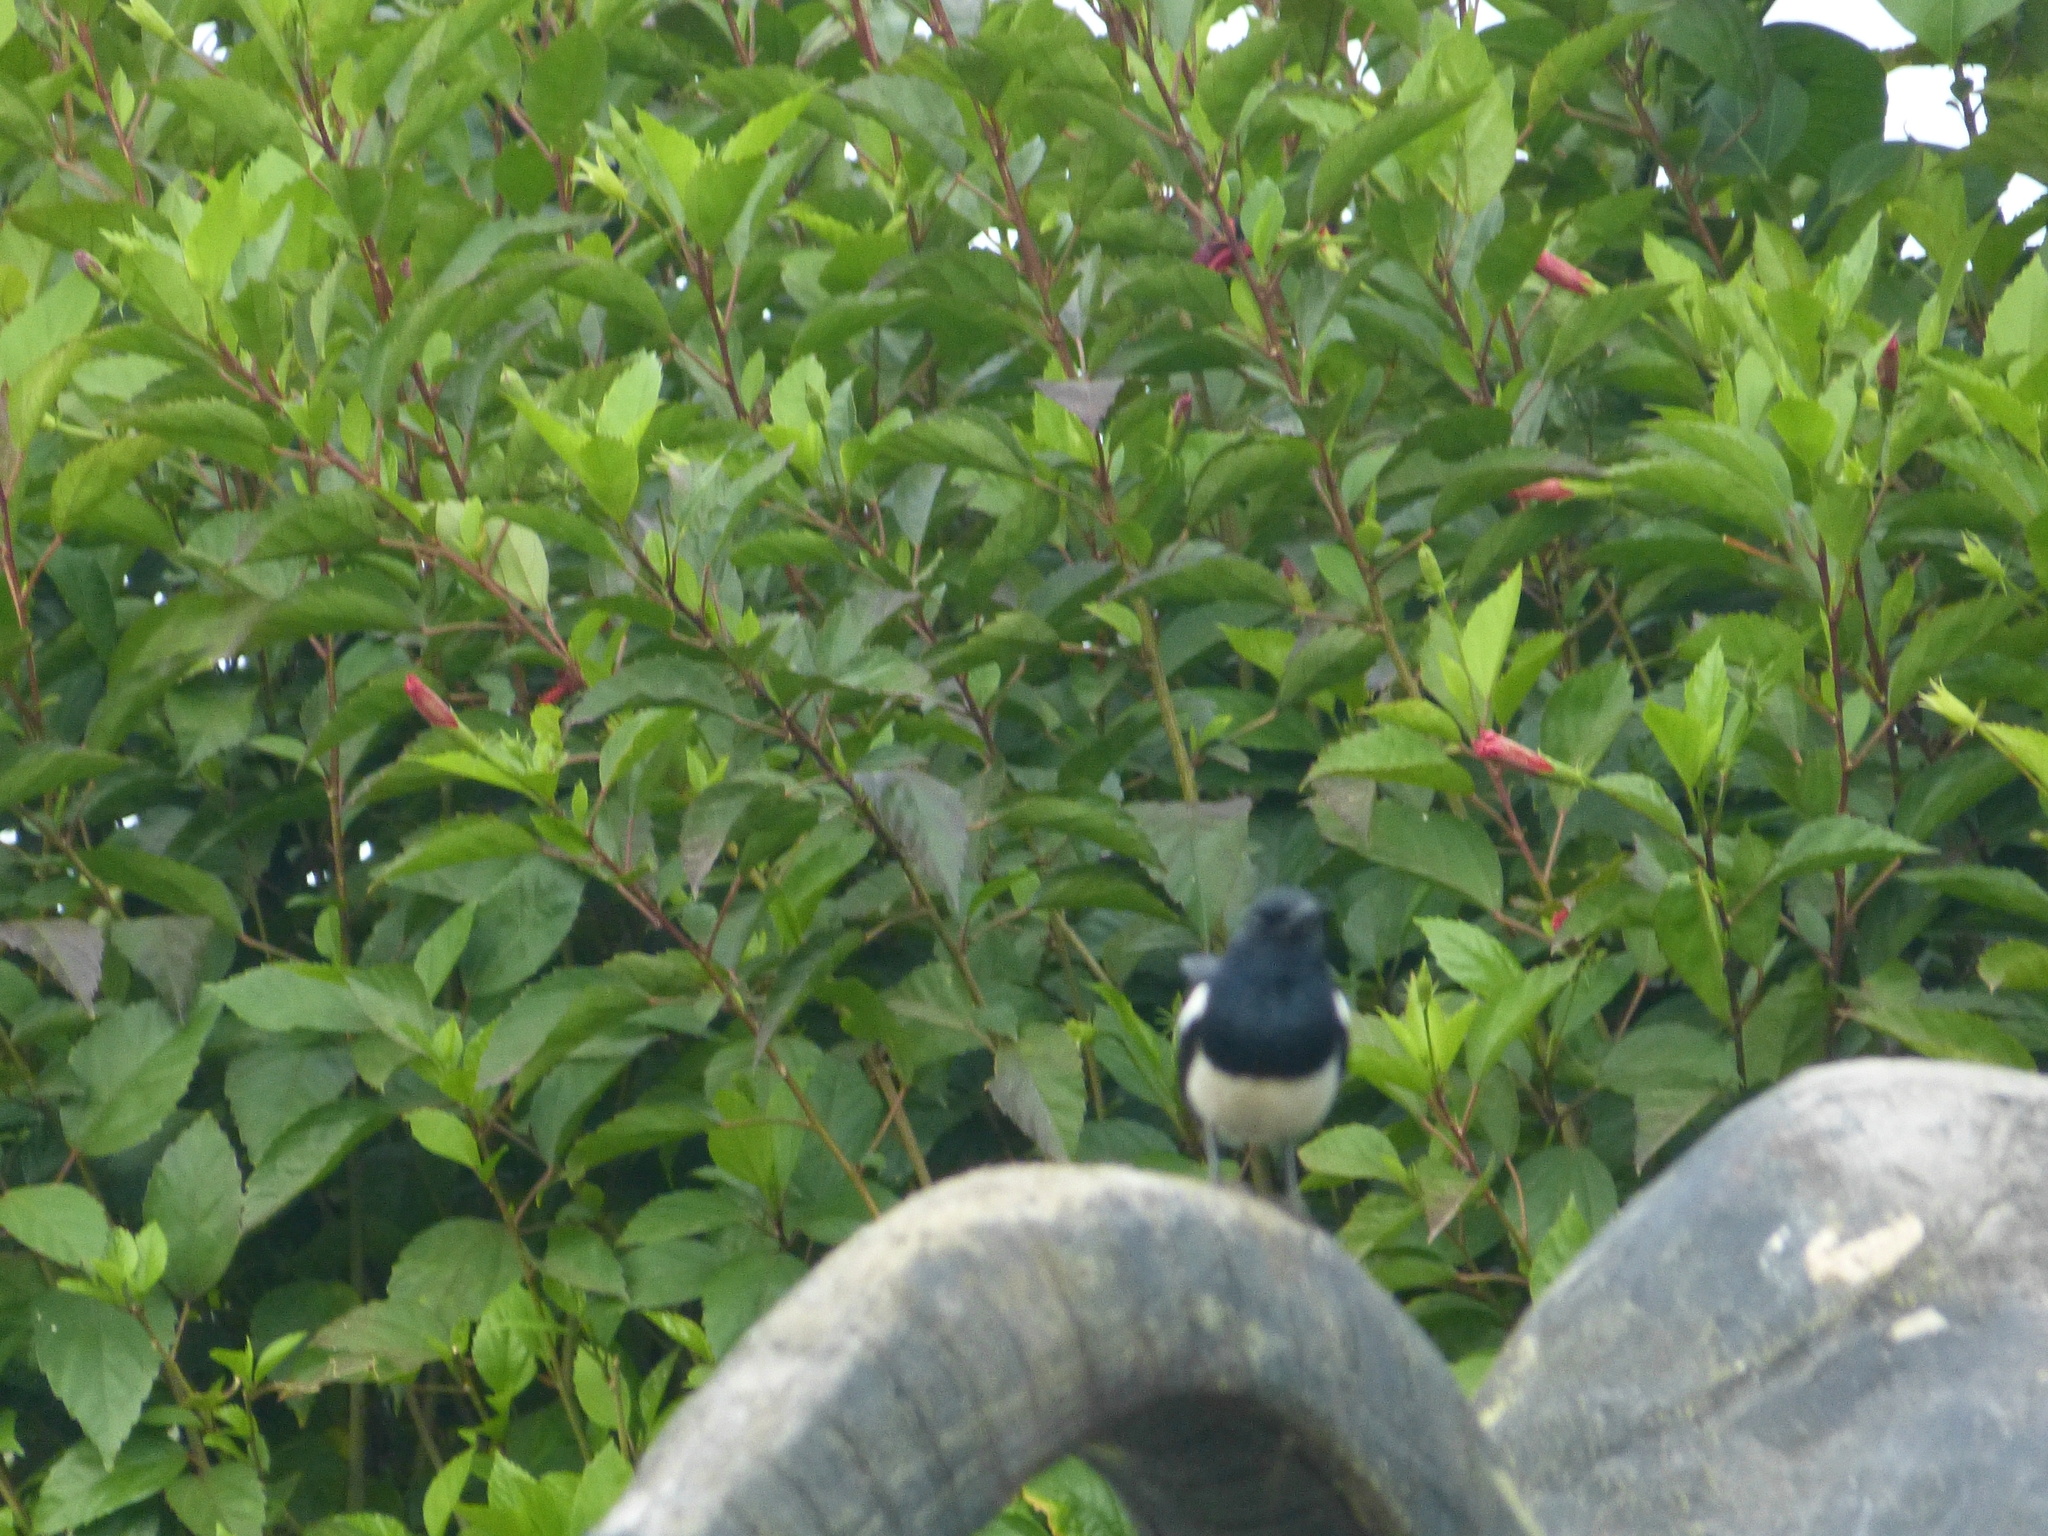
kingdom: Animalia
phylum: Chordata
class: Aves
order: Passeriformes
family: Muscicapidae
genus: Copsychus
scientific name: Copsychus saularis
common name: Oriental magpie-robin
